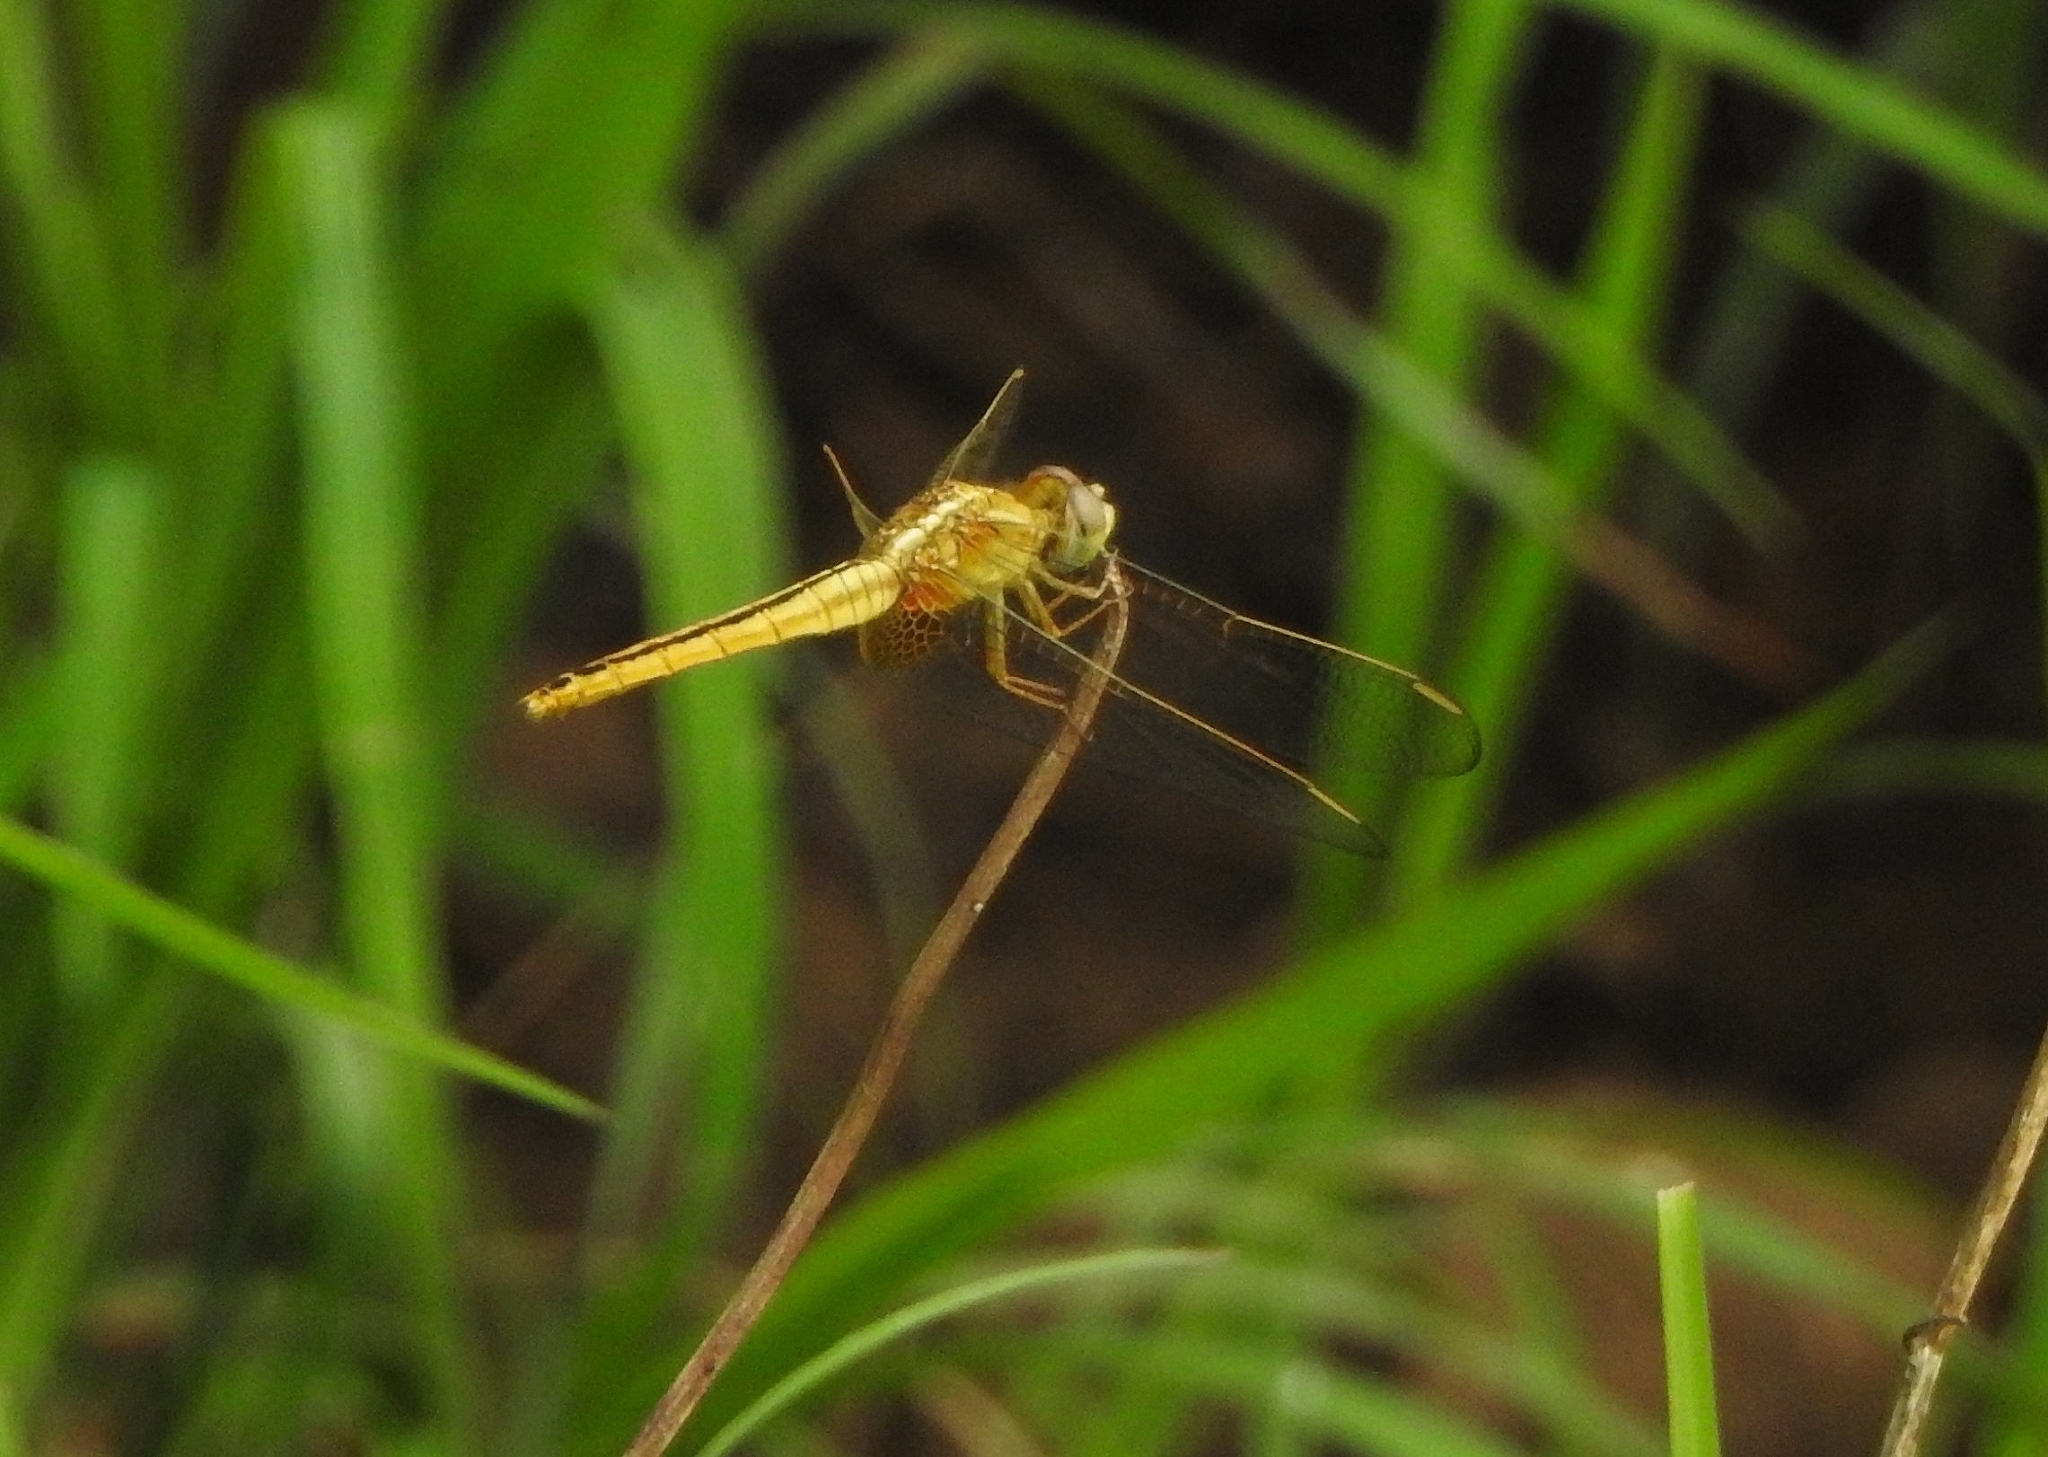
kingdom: Animalia
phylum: Arthropoda
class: Insecta
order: Odonata
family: Libellulidae
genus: Crocothemis
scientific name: Crocothemis servilia
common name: Scarlet skimmer
